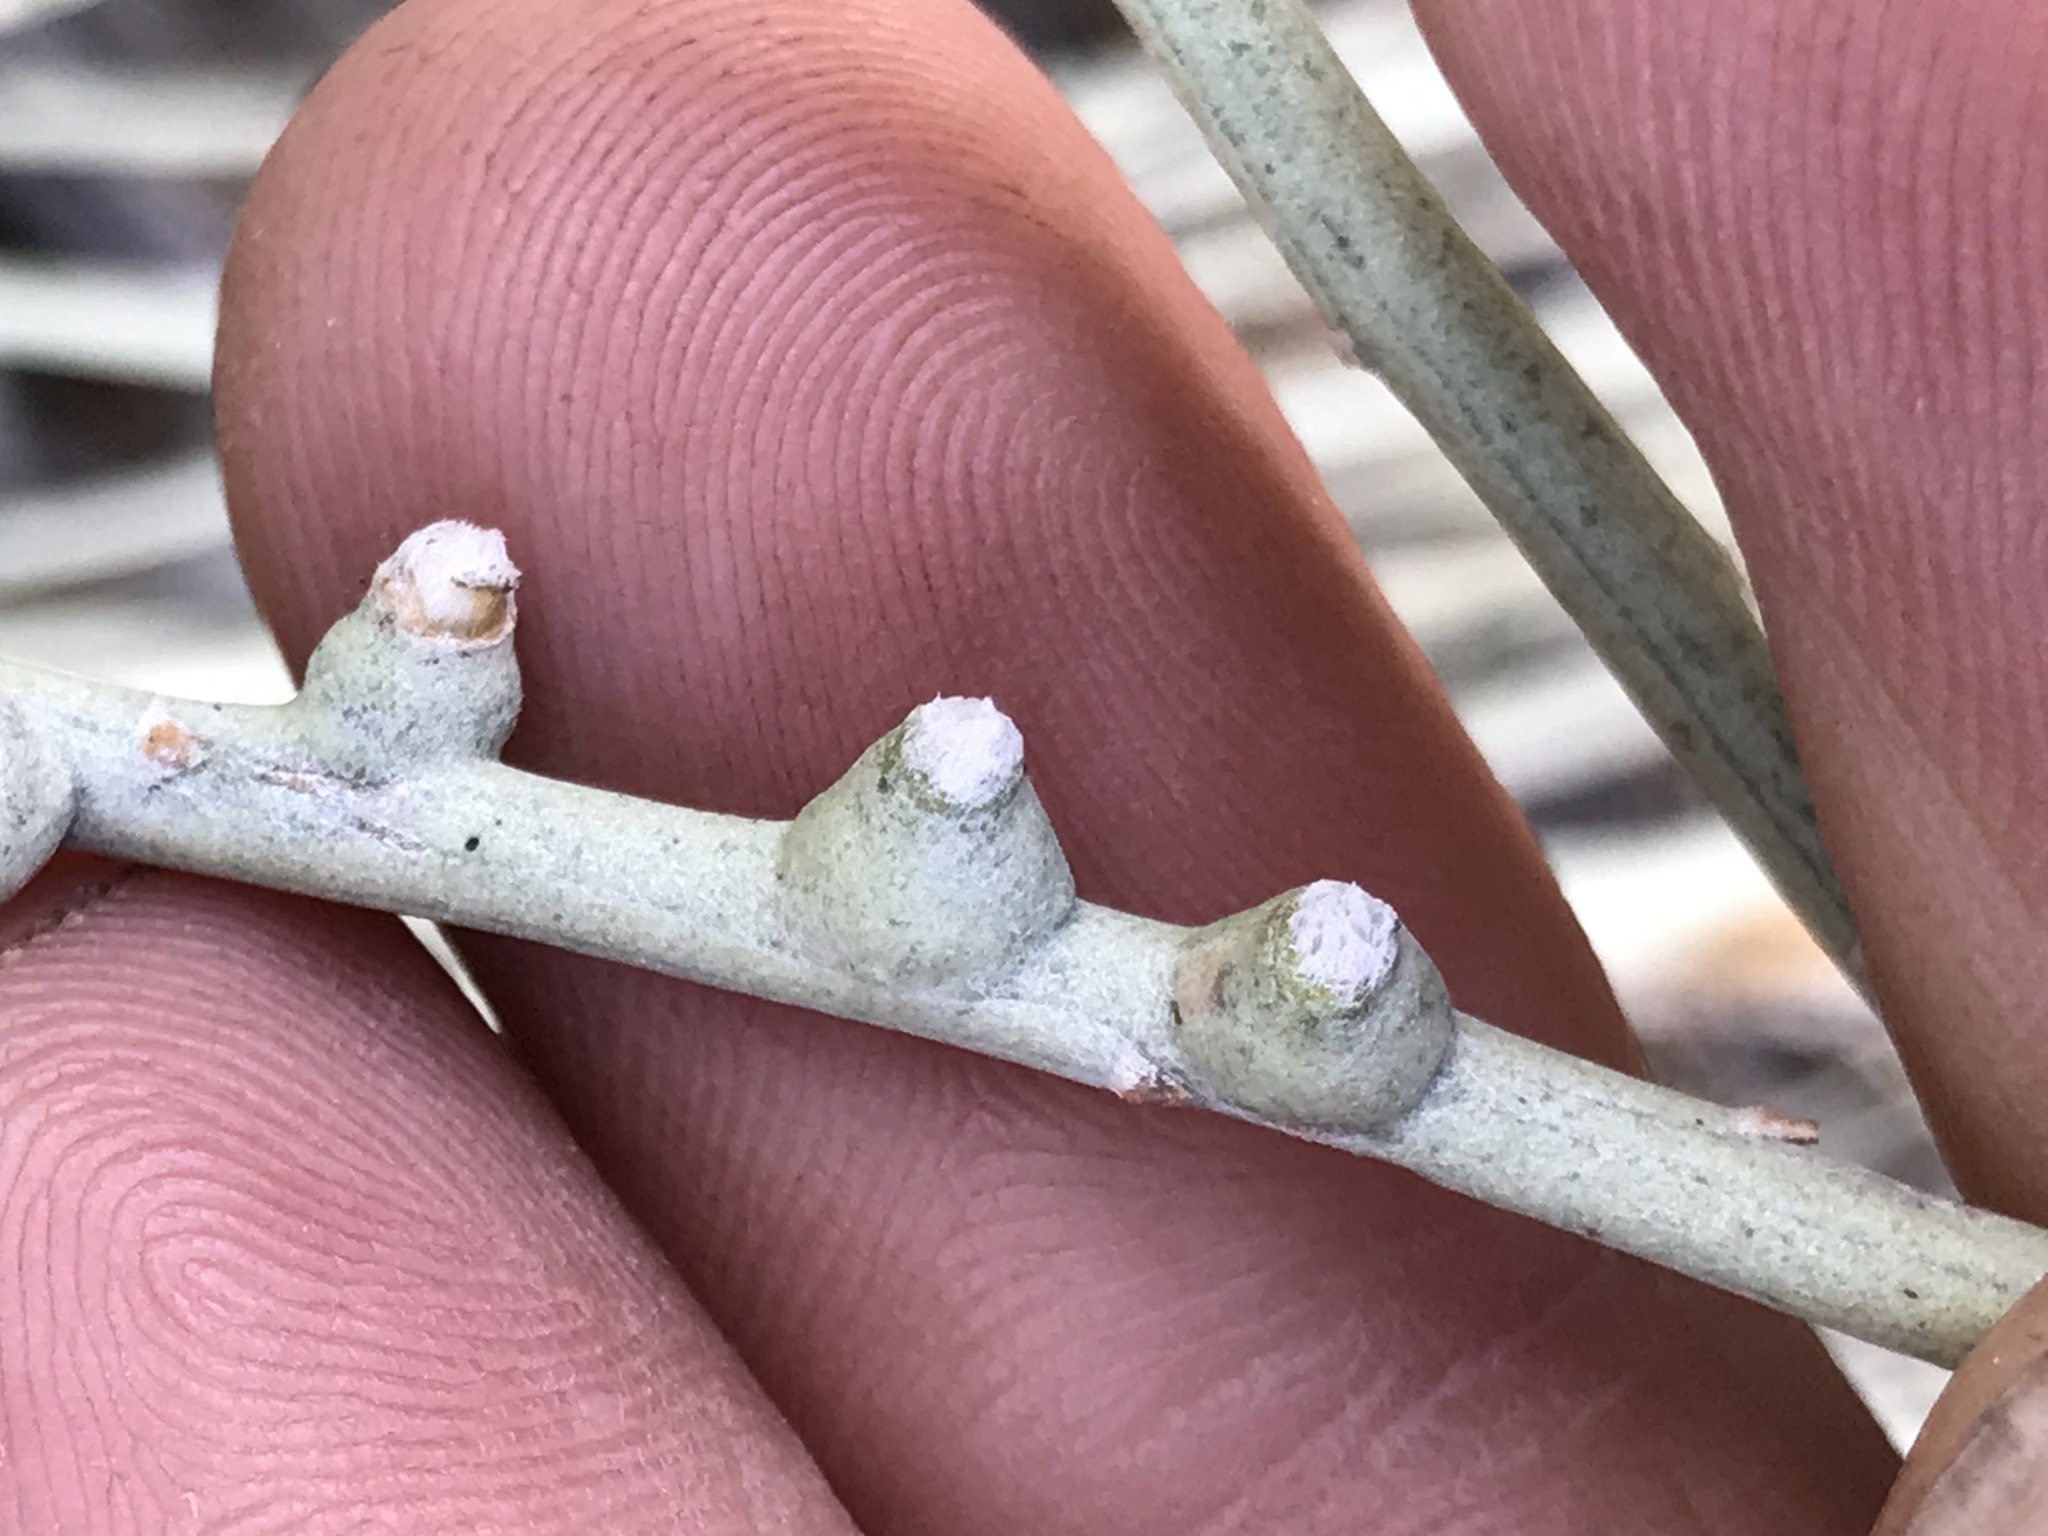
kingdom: Animalia
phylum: Arthropoda
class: Insecta
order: Diptera
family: Cecidomyiidae
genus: Rhopalomyia
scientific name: Rhopalomyia chrysothamni
